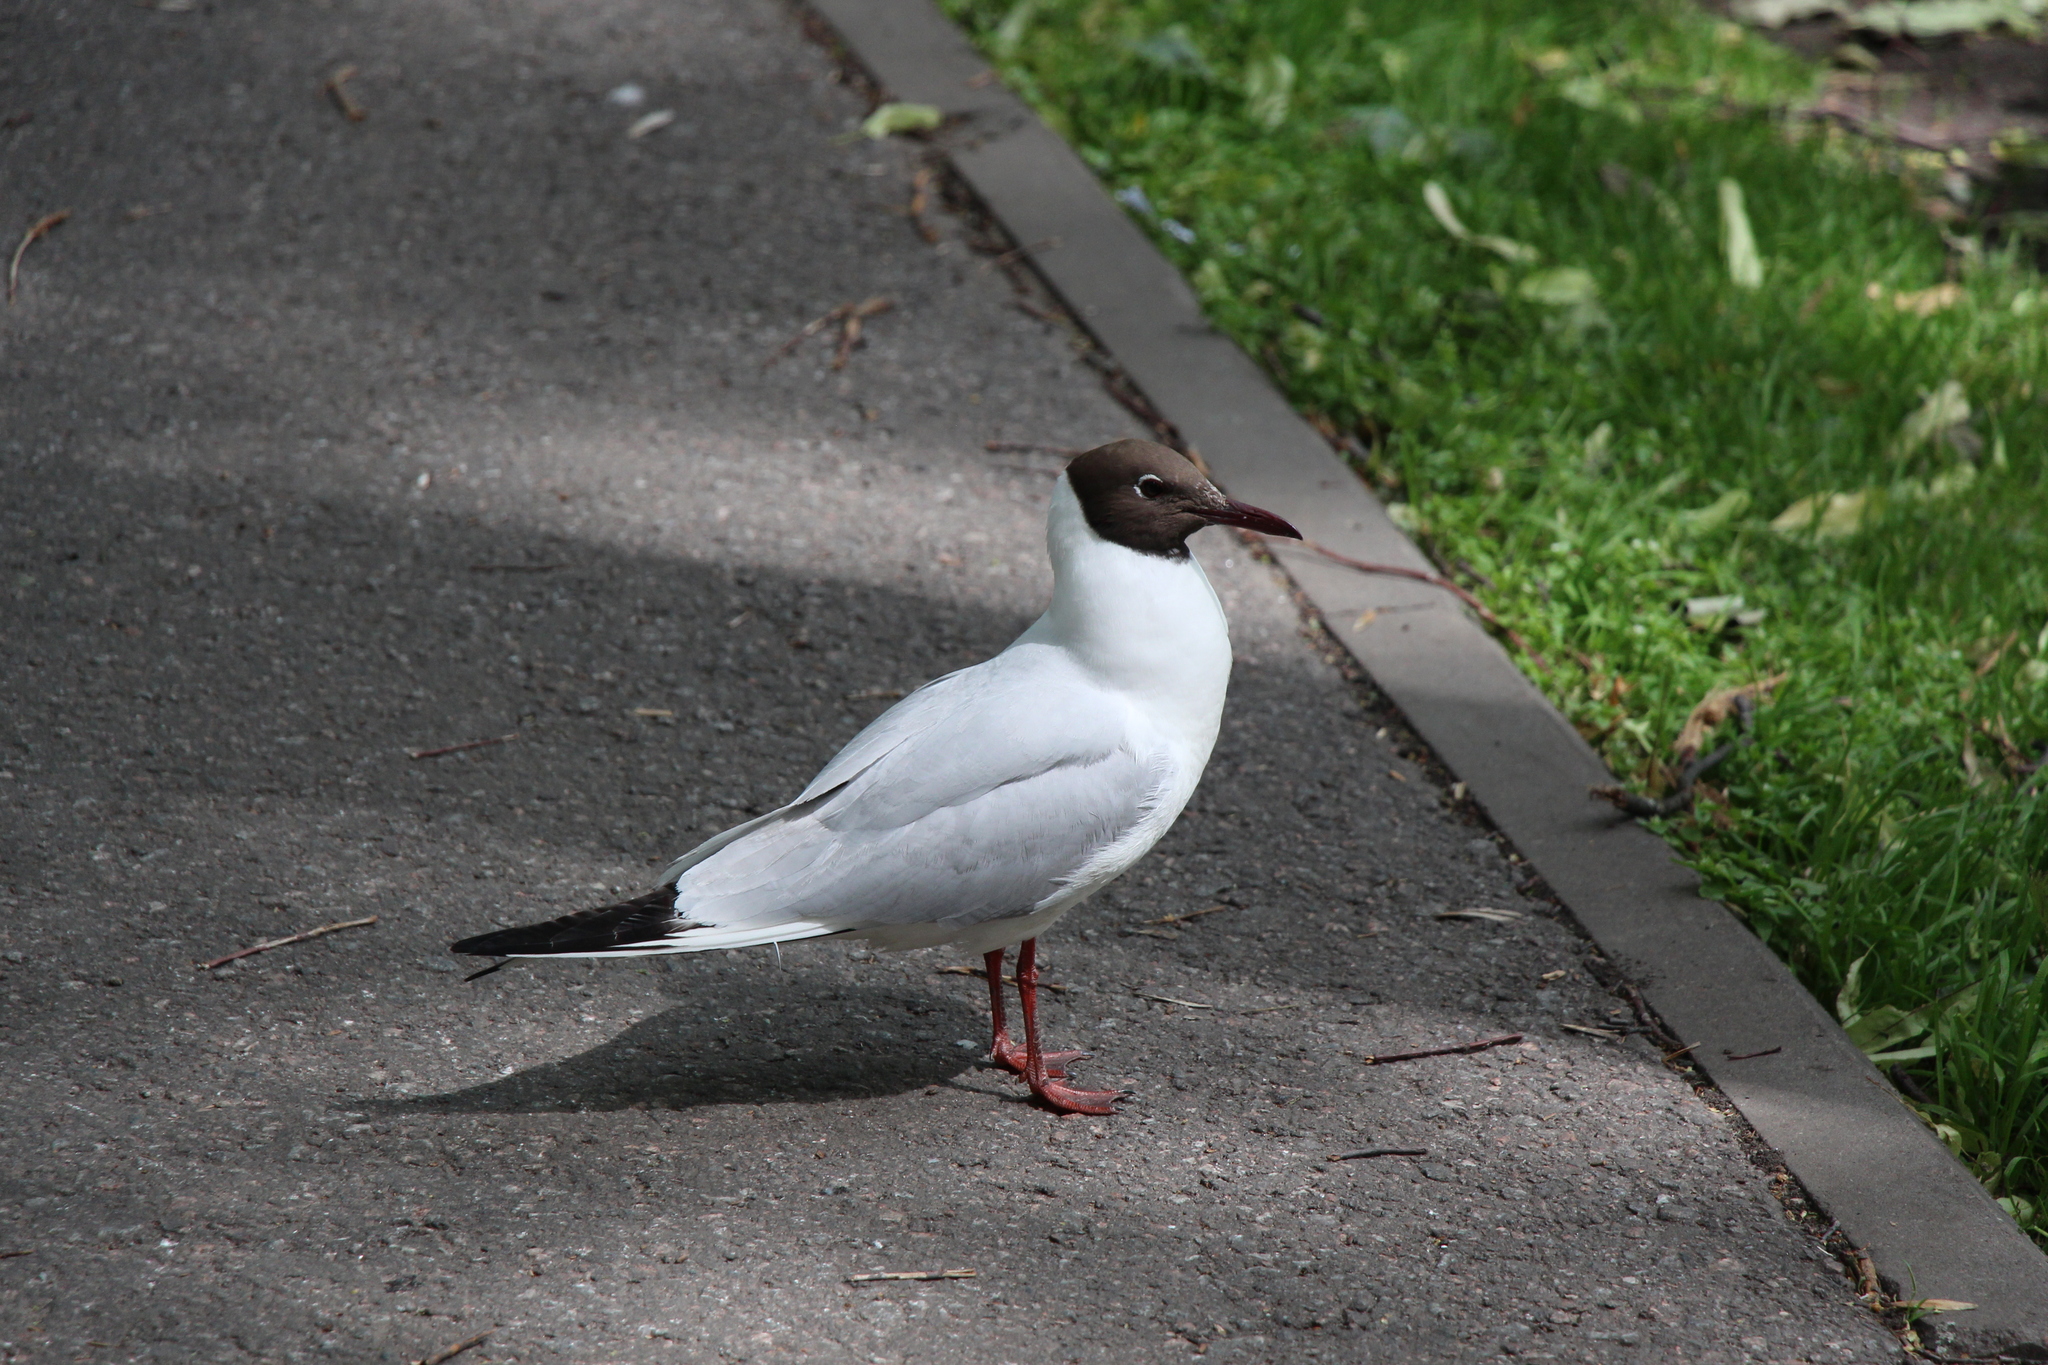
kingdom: Animalia
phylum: Chordata
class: Aves
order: Charadriiformes
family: Laridae
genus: Chroicocephalus
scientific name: Chroicocephalus ridibundus
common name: Black-headed gull
